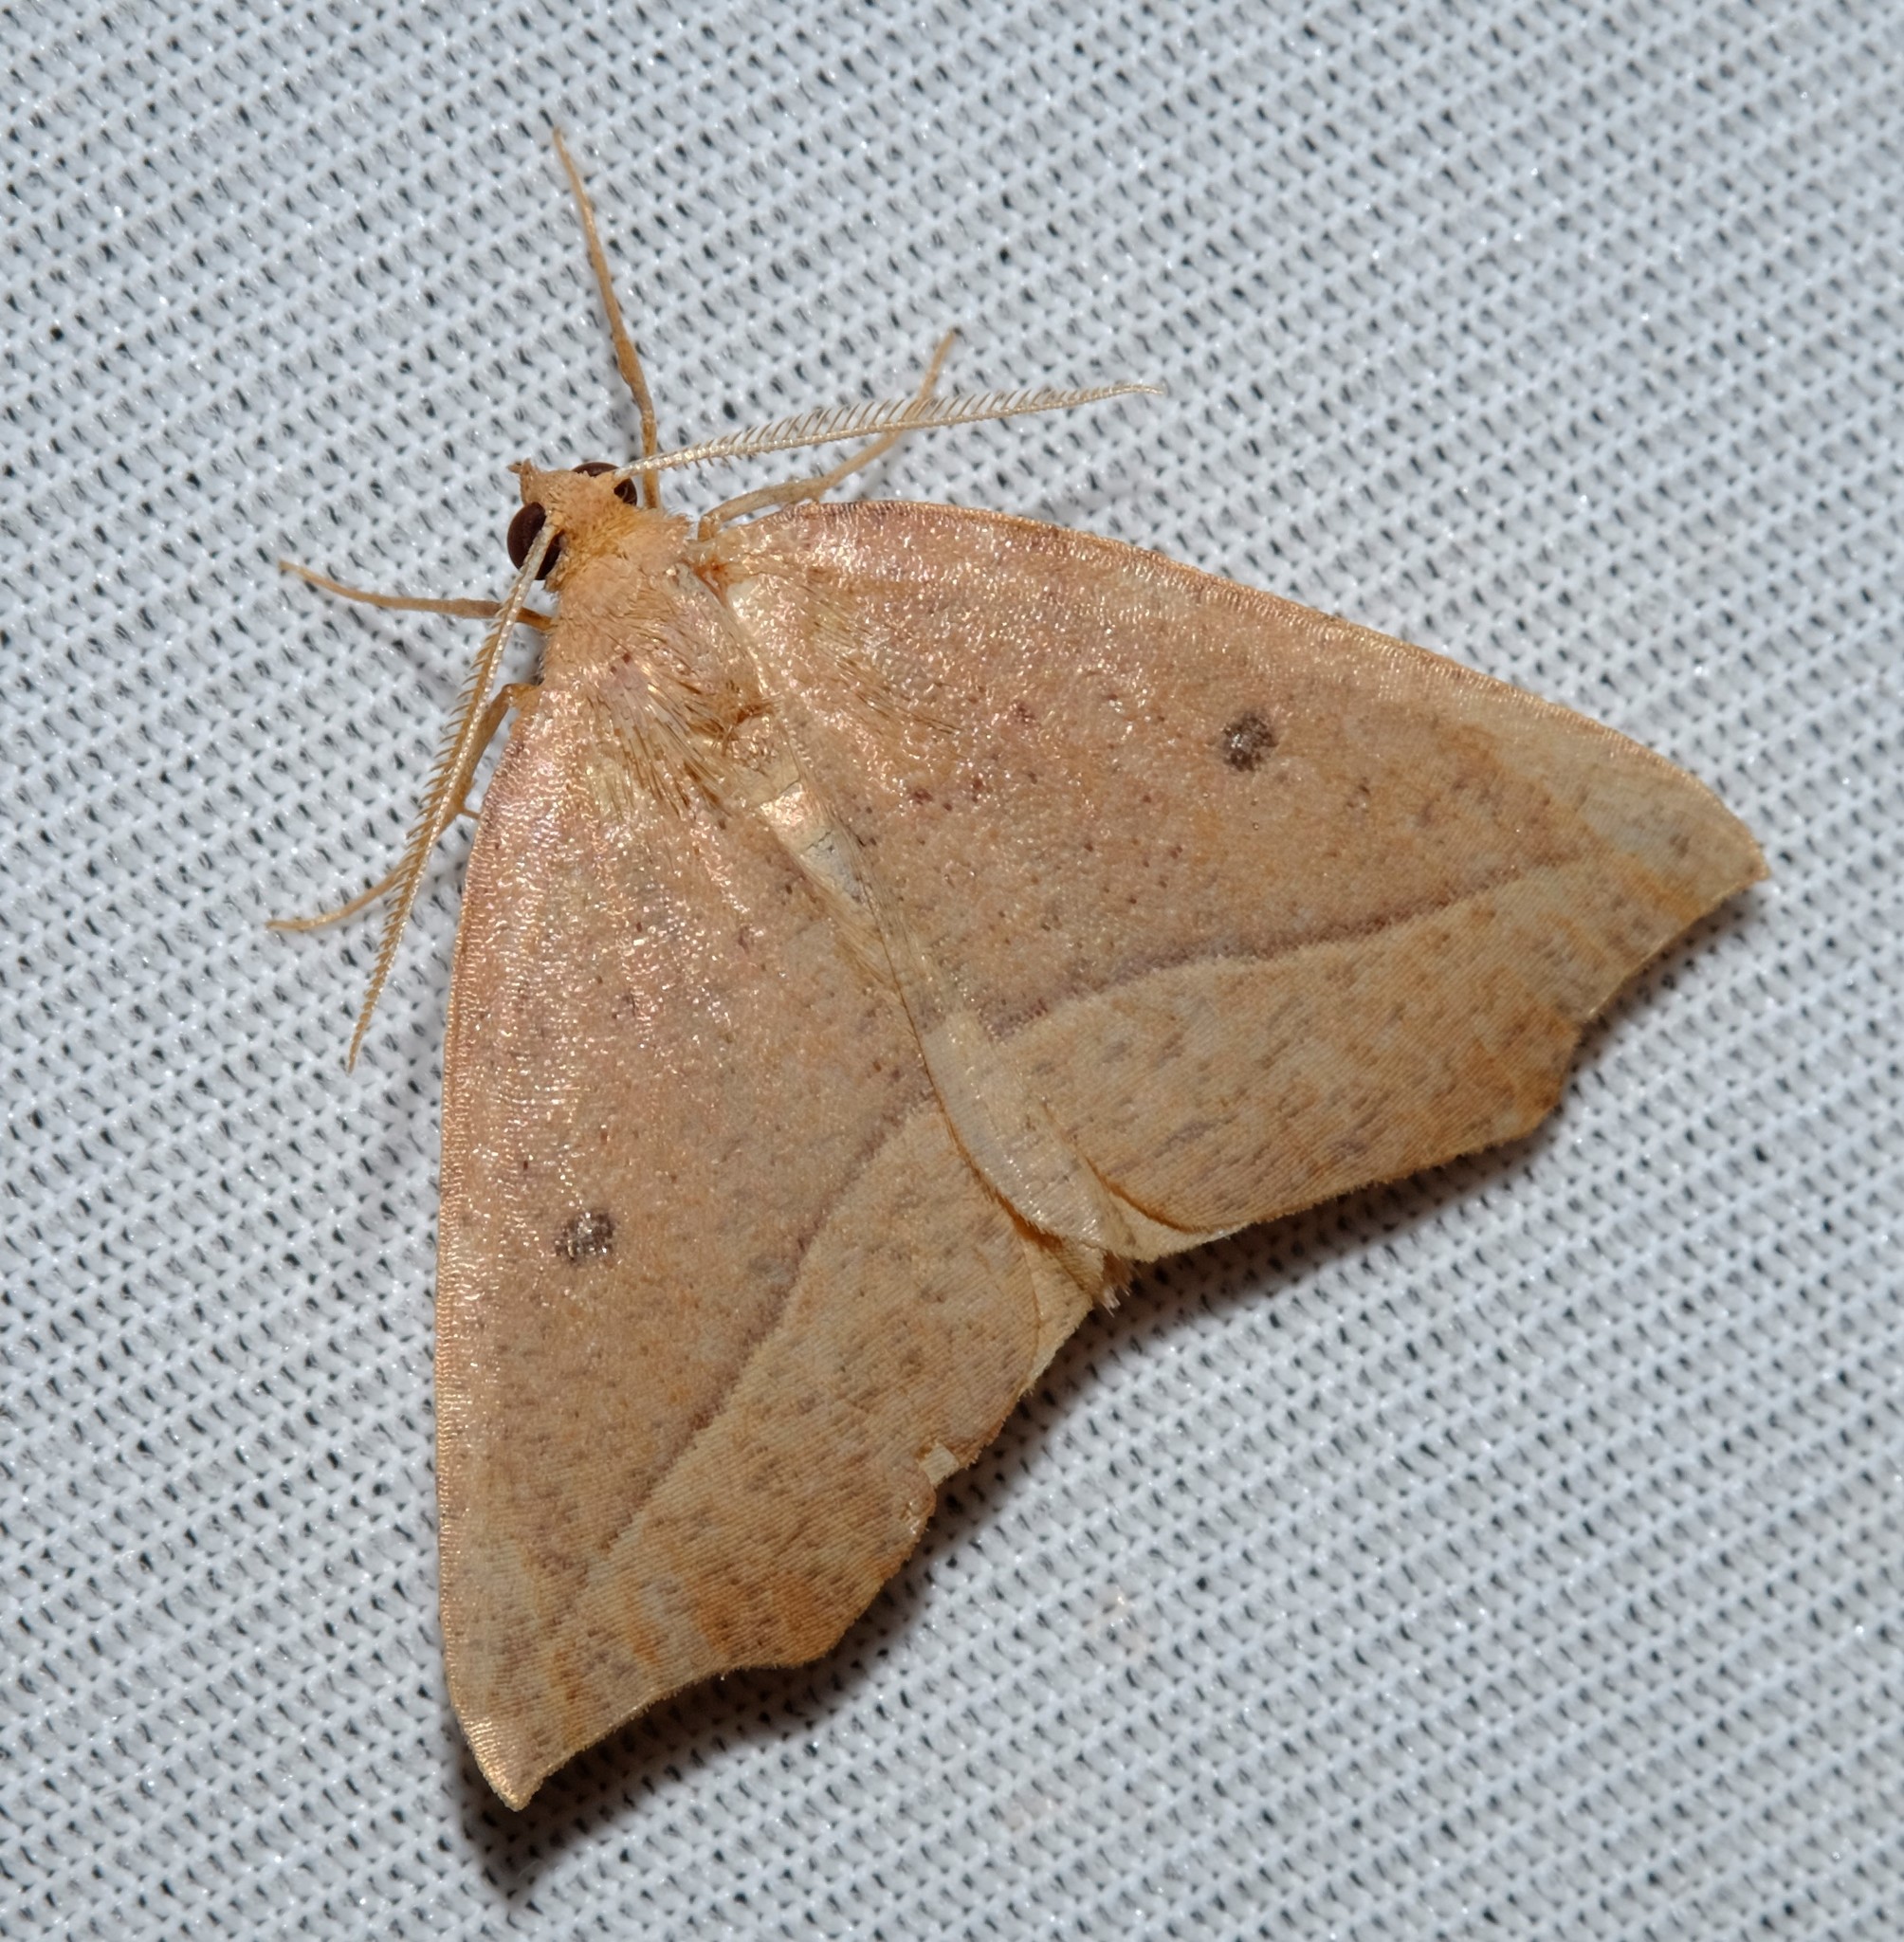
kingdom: Animalia
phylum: Arthropoda
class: Insecta
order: Lepidoptera
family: Geometridae
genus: Microsema
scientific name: Microsema
